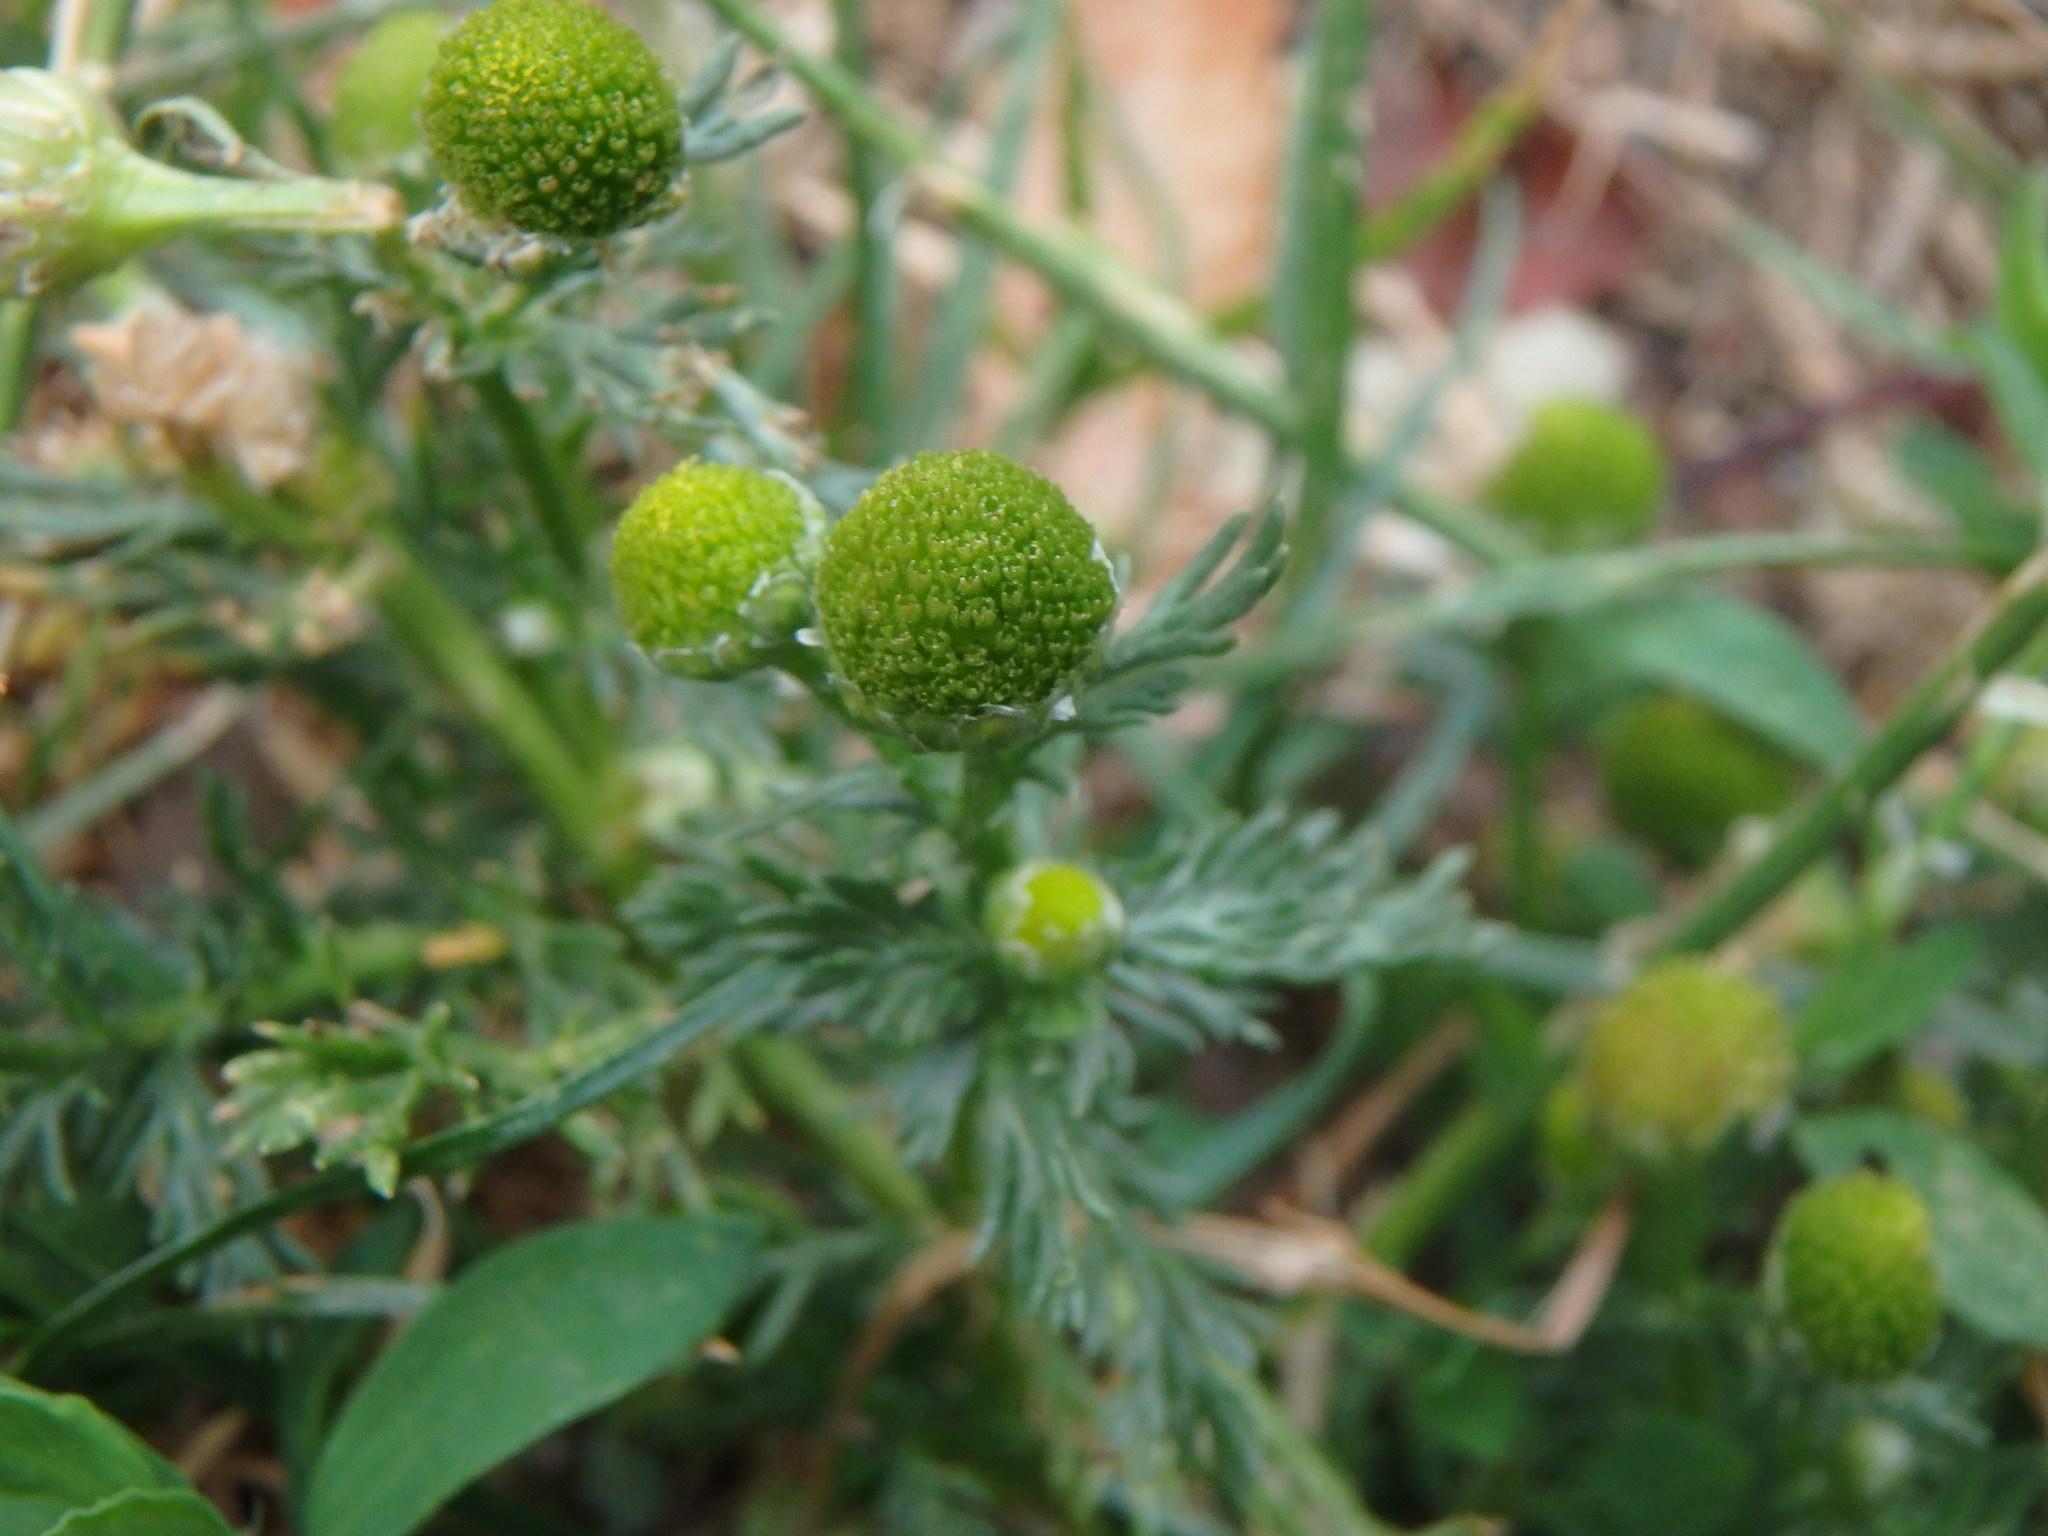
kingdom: Plantae
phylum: Tracheophyta
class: Magnoliopsida
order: Asterales
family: Asteraceae
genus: Matricaria
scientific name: Matricaria discoidea
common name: Disc mayweed
